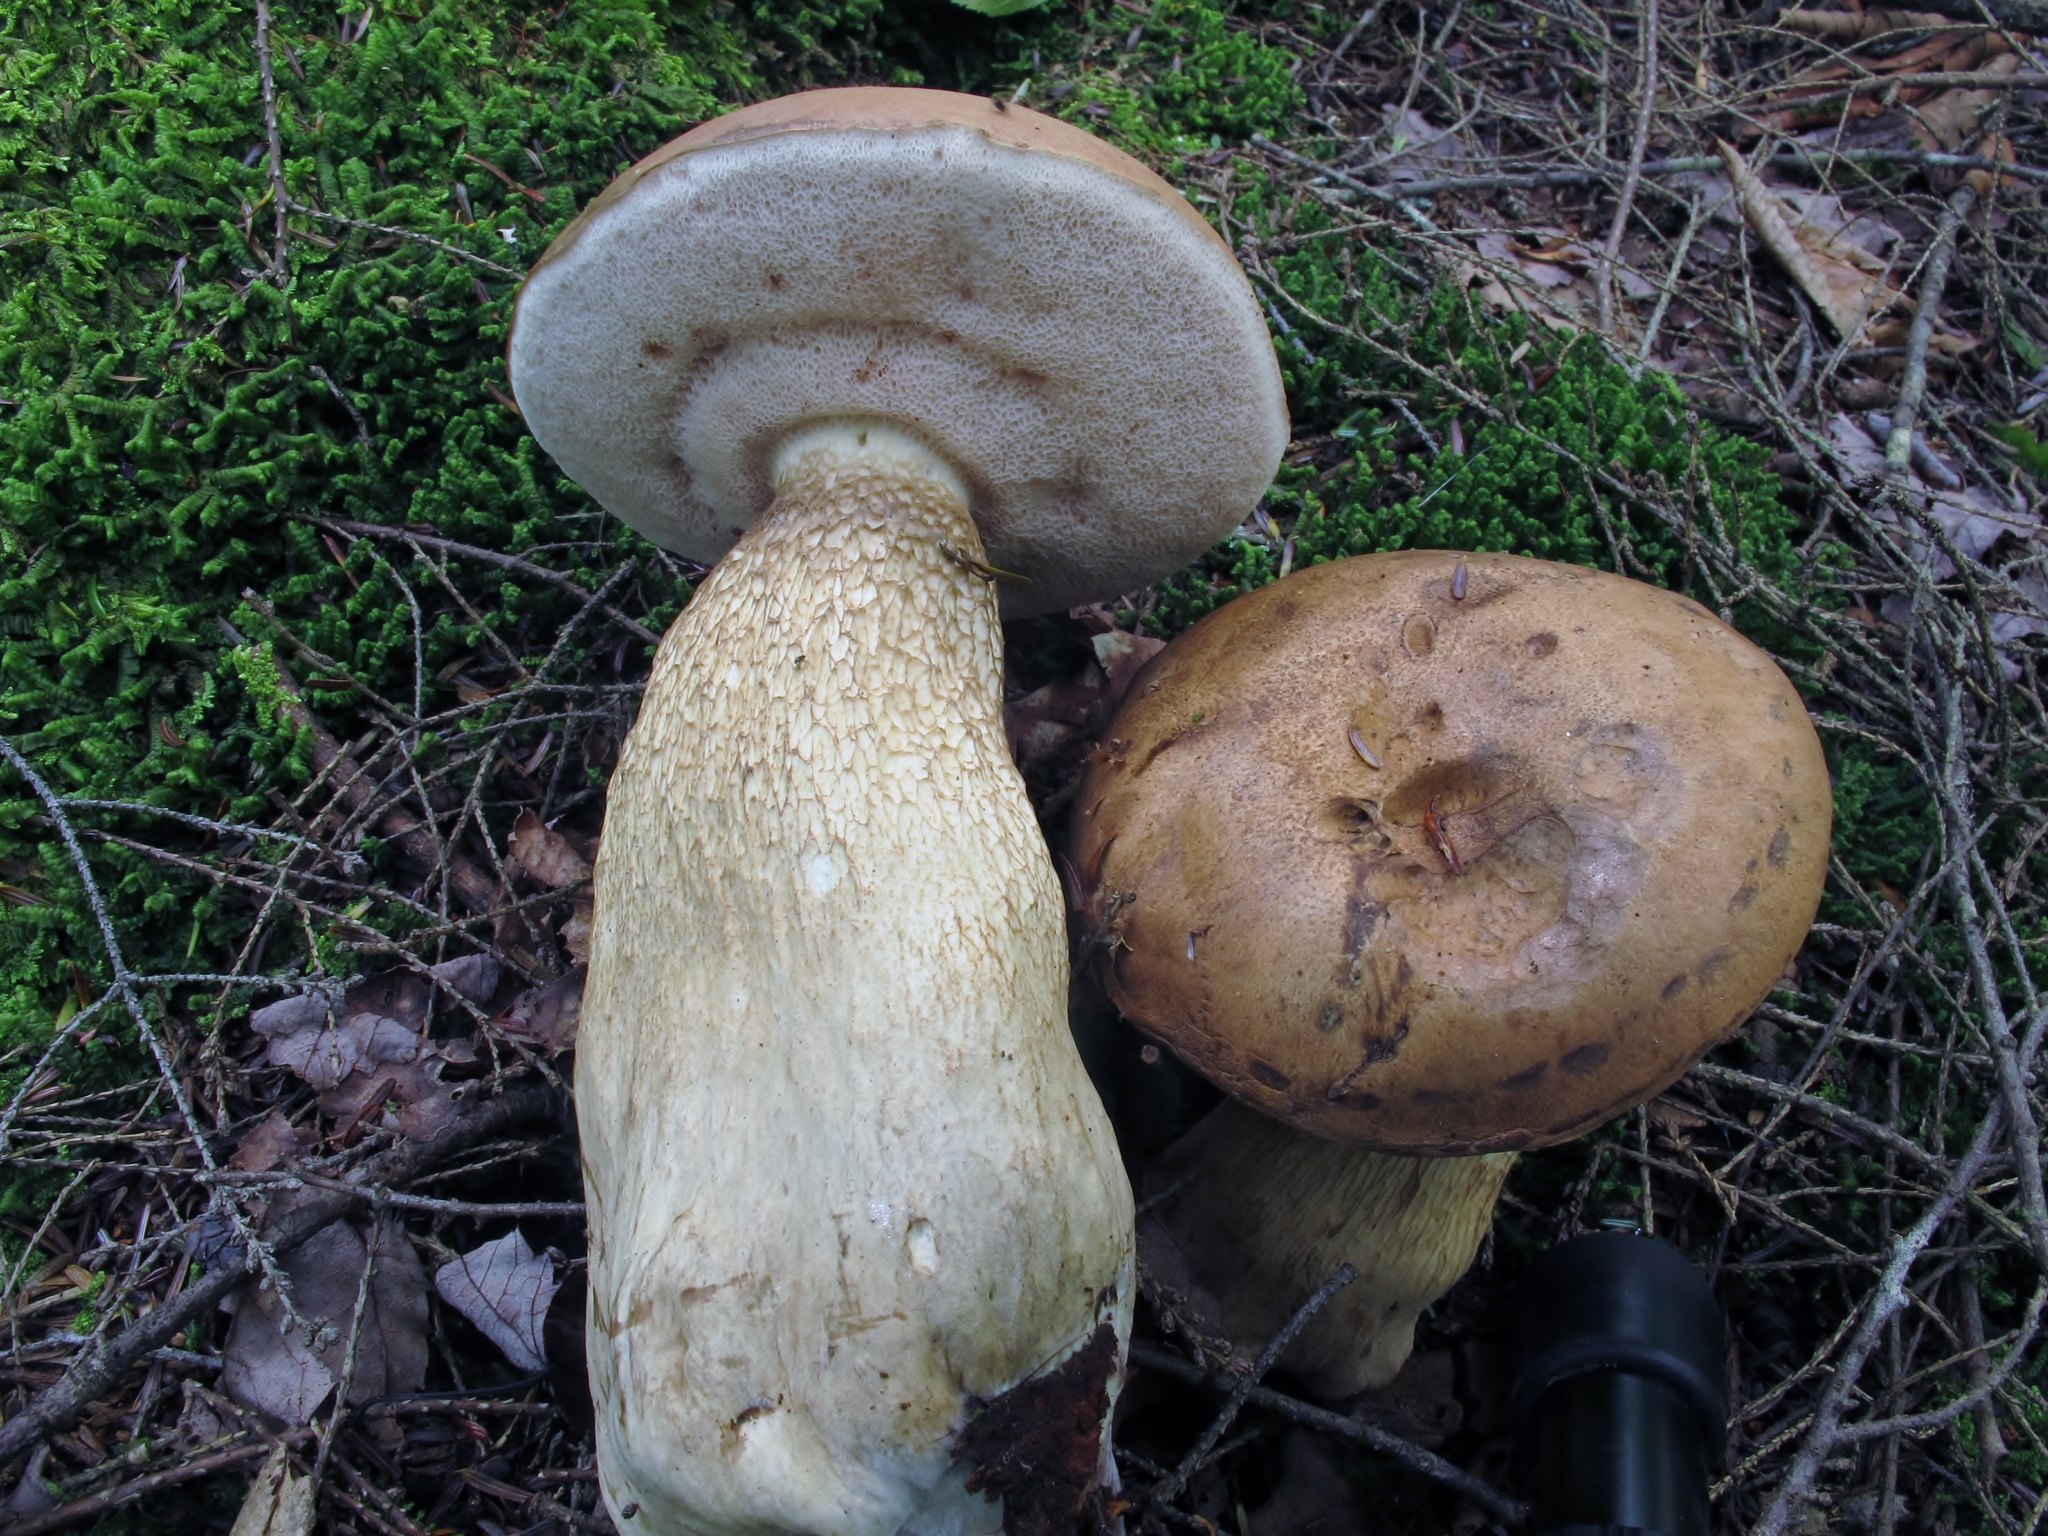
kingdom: Fungi
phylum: Basidiomycota
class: Agaricomycetes
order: Boletales
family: Boletaceae
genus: Tylopilus
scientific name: Tylopilus felleus
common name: Bitter bolete
